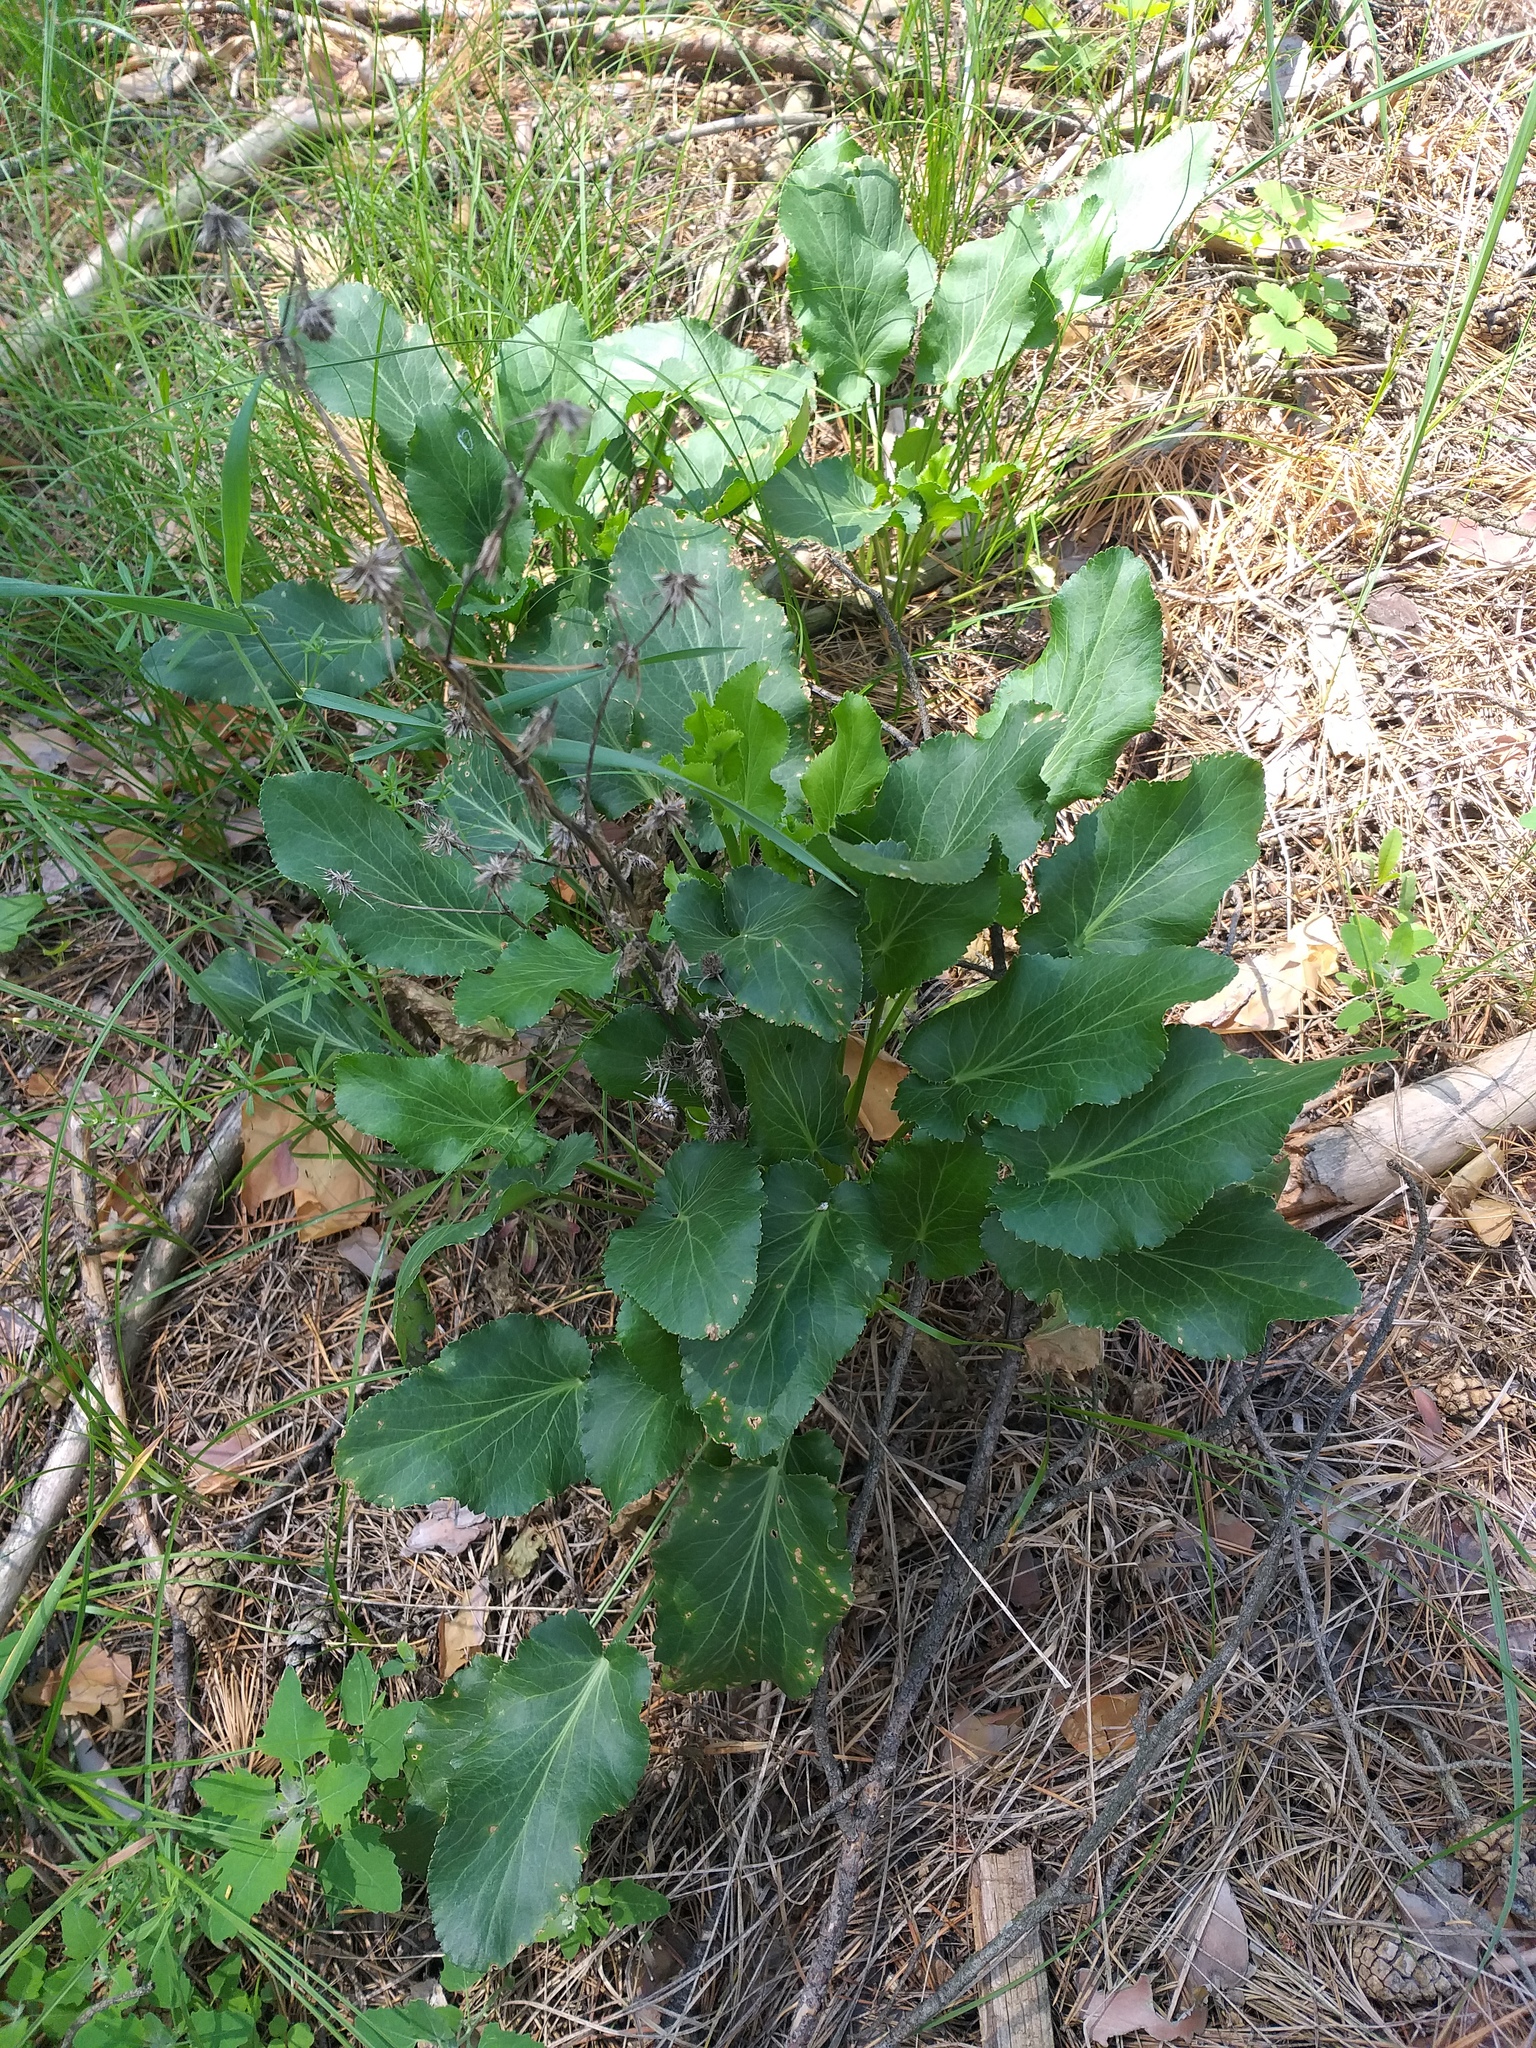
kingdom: Plantae
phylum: Tracheophyta
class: Magnoliopsida
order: Apiales
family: Apiaceae
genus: Eryngium
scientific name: Eryngium planum
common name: Blue eryngo
